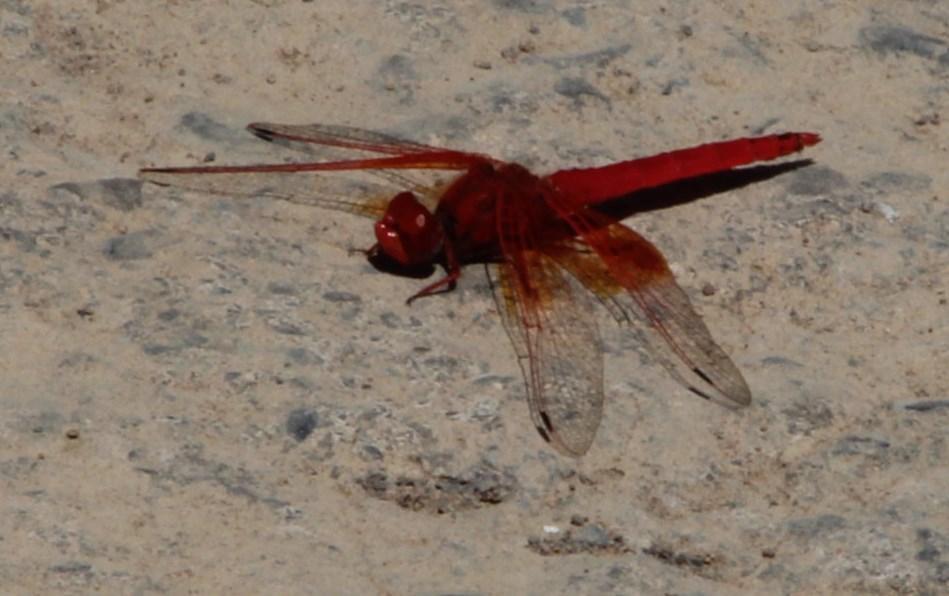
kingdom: Animalia
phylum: Arthropoda
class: Insecta
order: Odonata
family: Libellulidae
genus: Trithemis
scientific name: Trithemis kirbyi
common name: Kirby's dropwing
